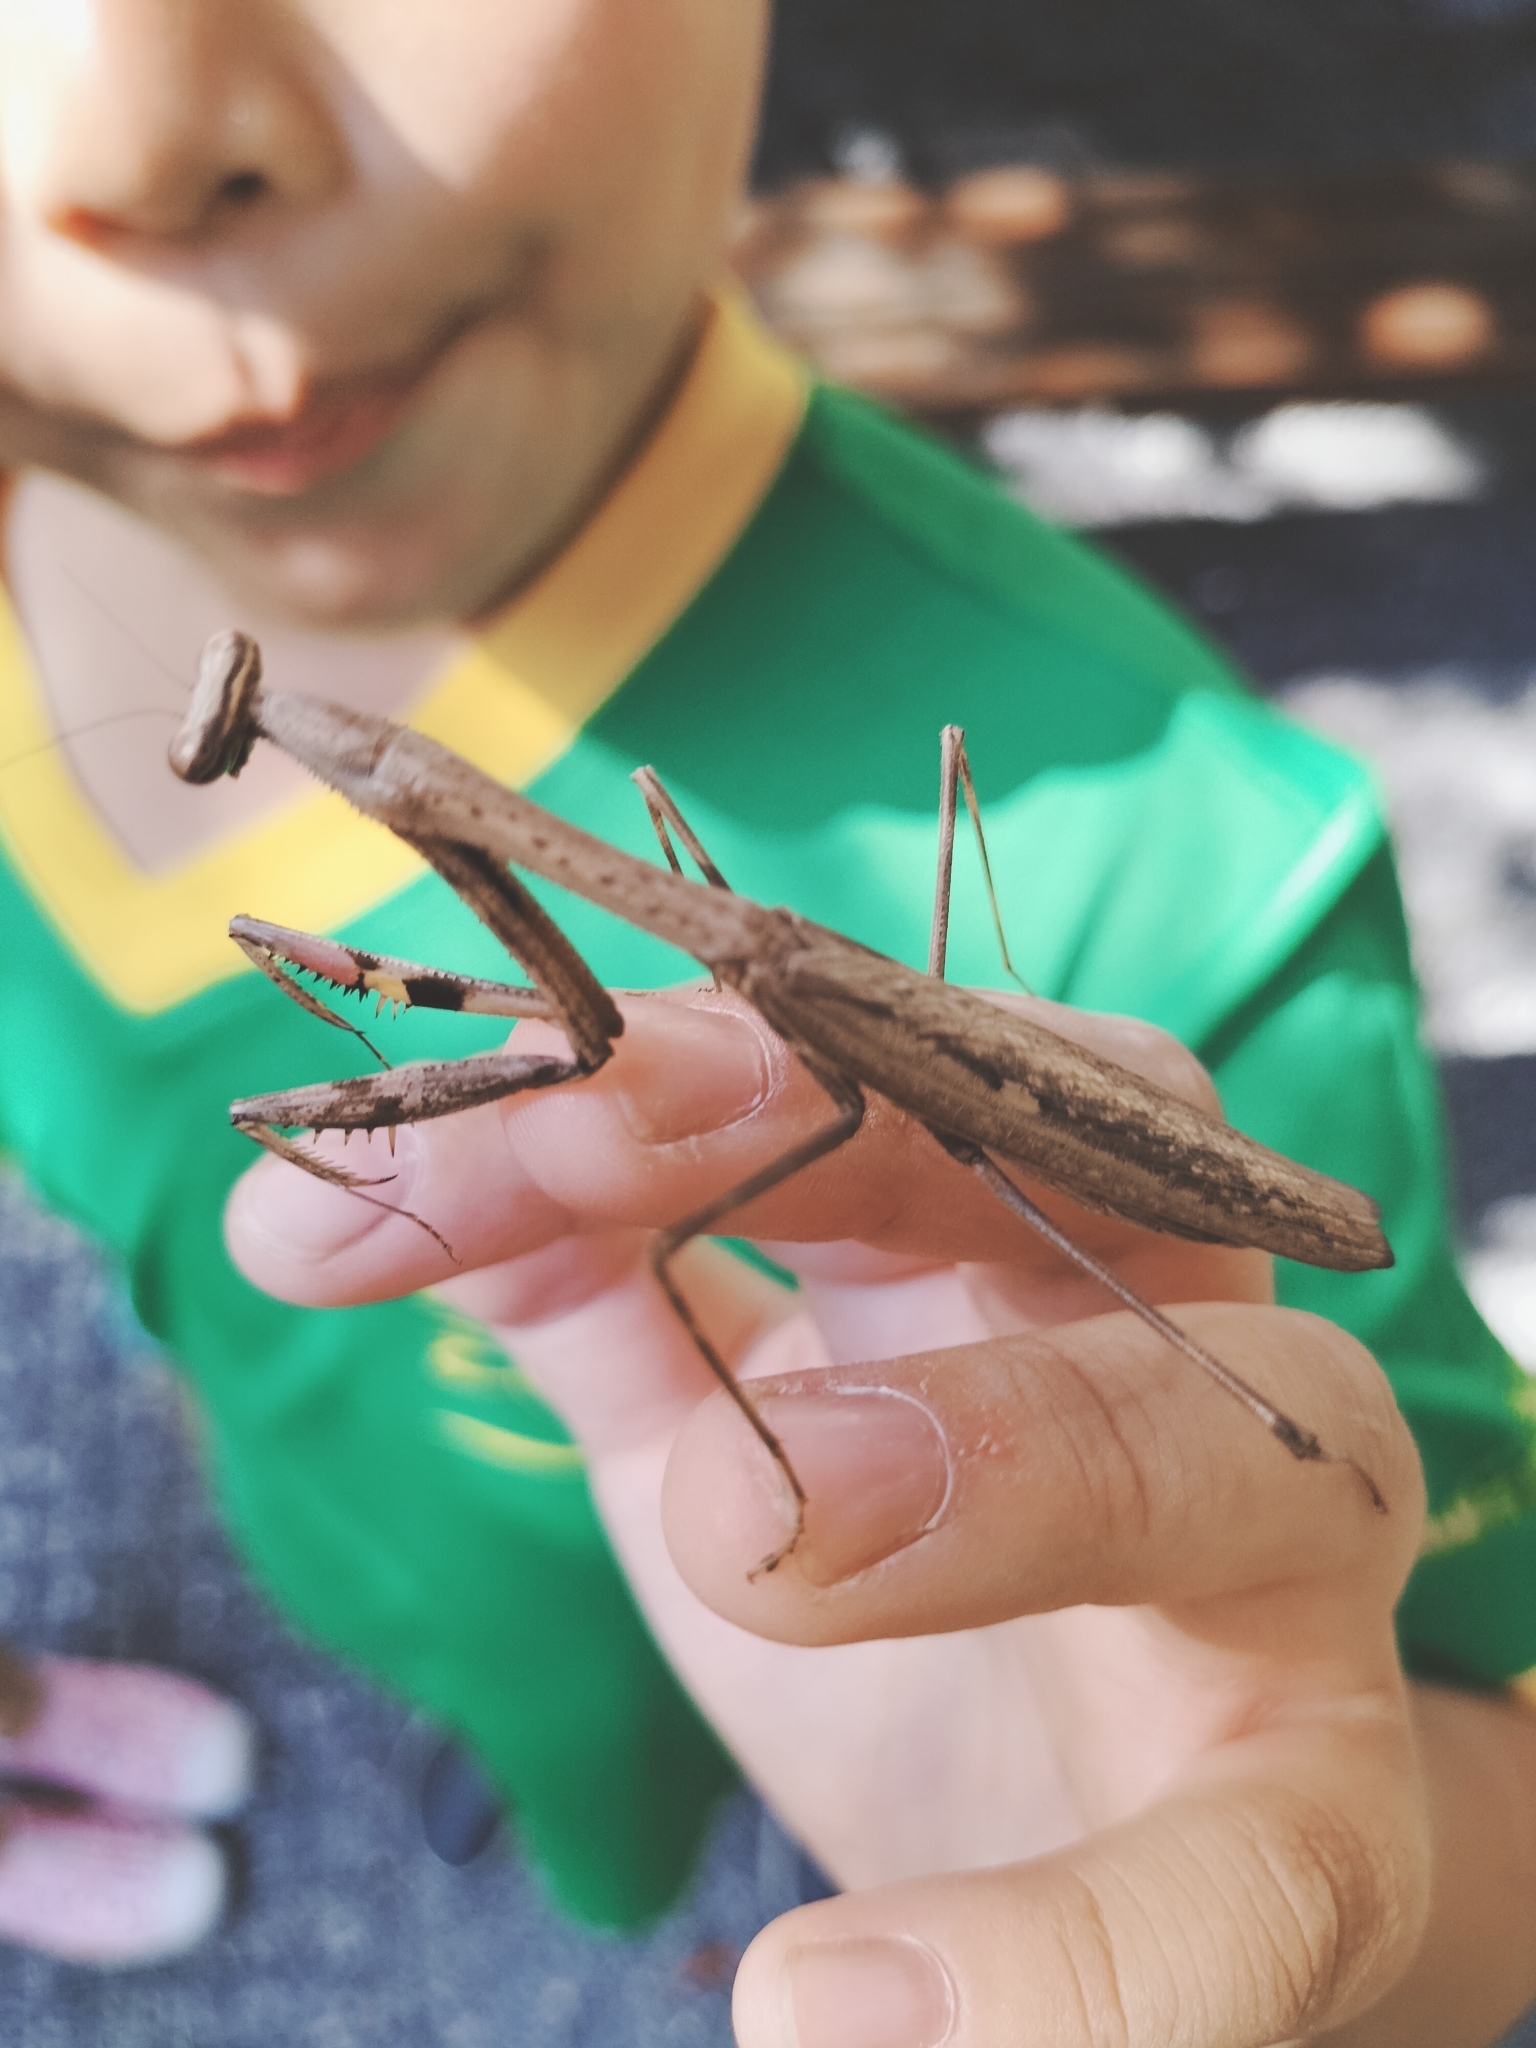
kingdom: Animalia
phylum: Arthropoda
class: Insecta
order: Mantodea
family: Mantidae
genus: Statilia
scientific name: Statilia maculata
